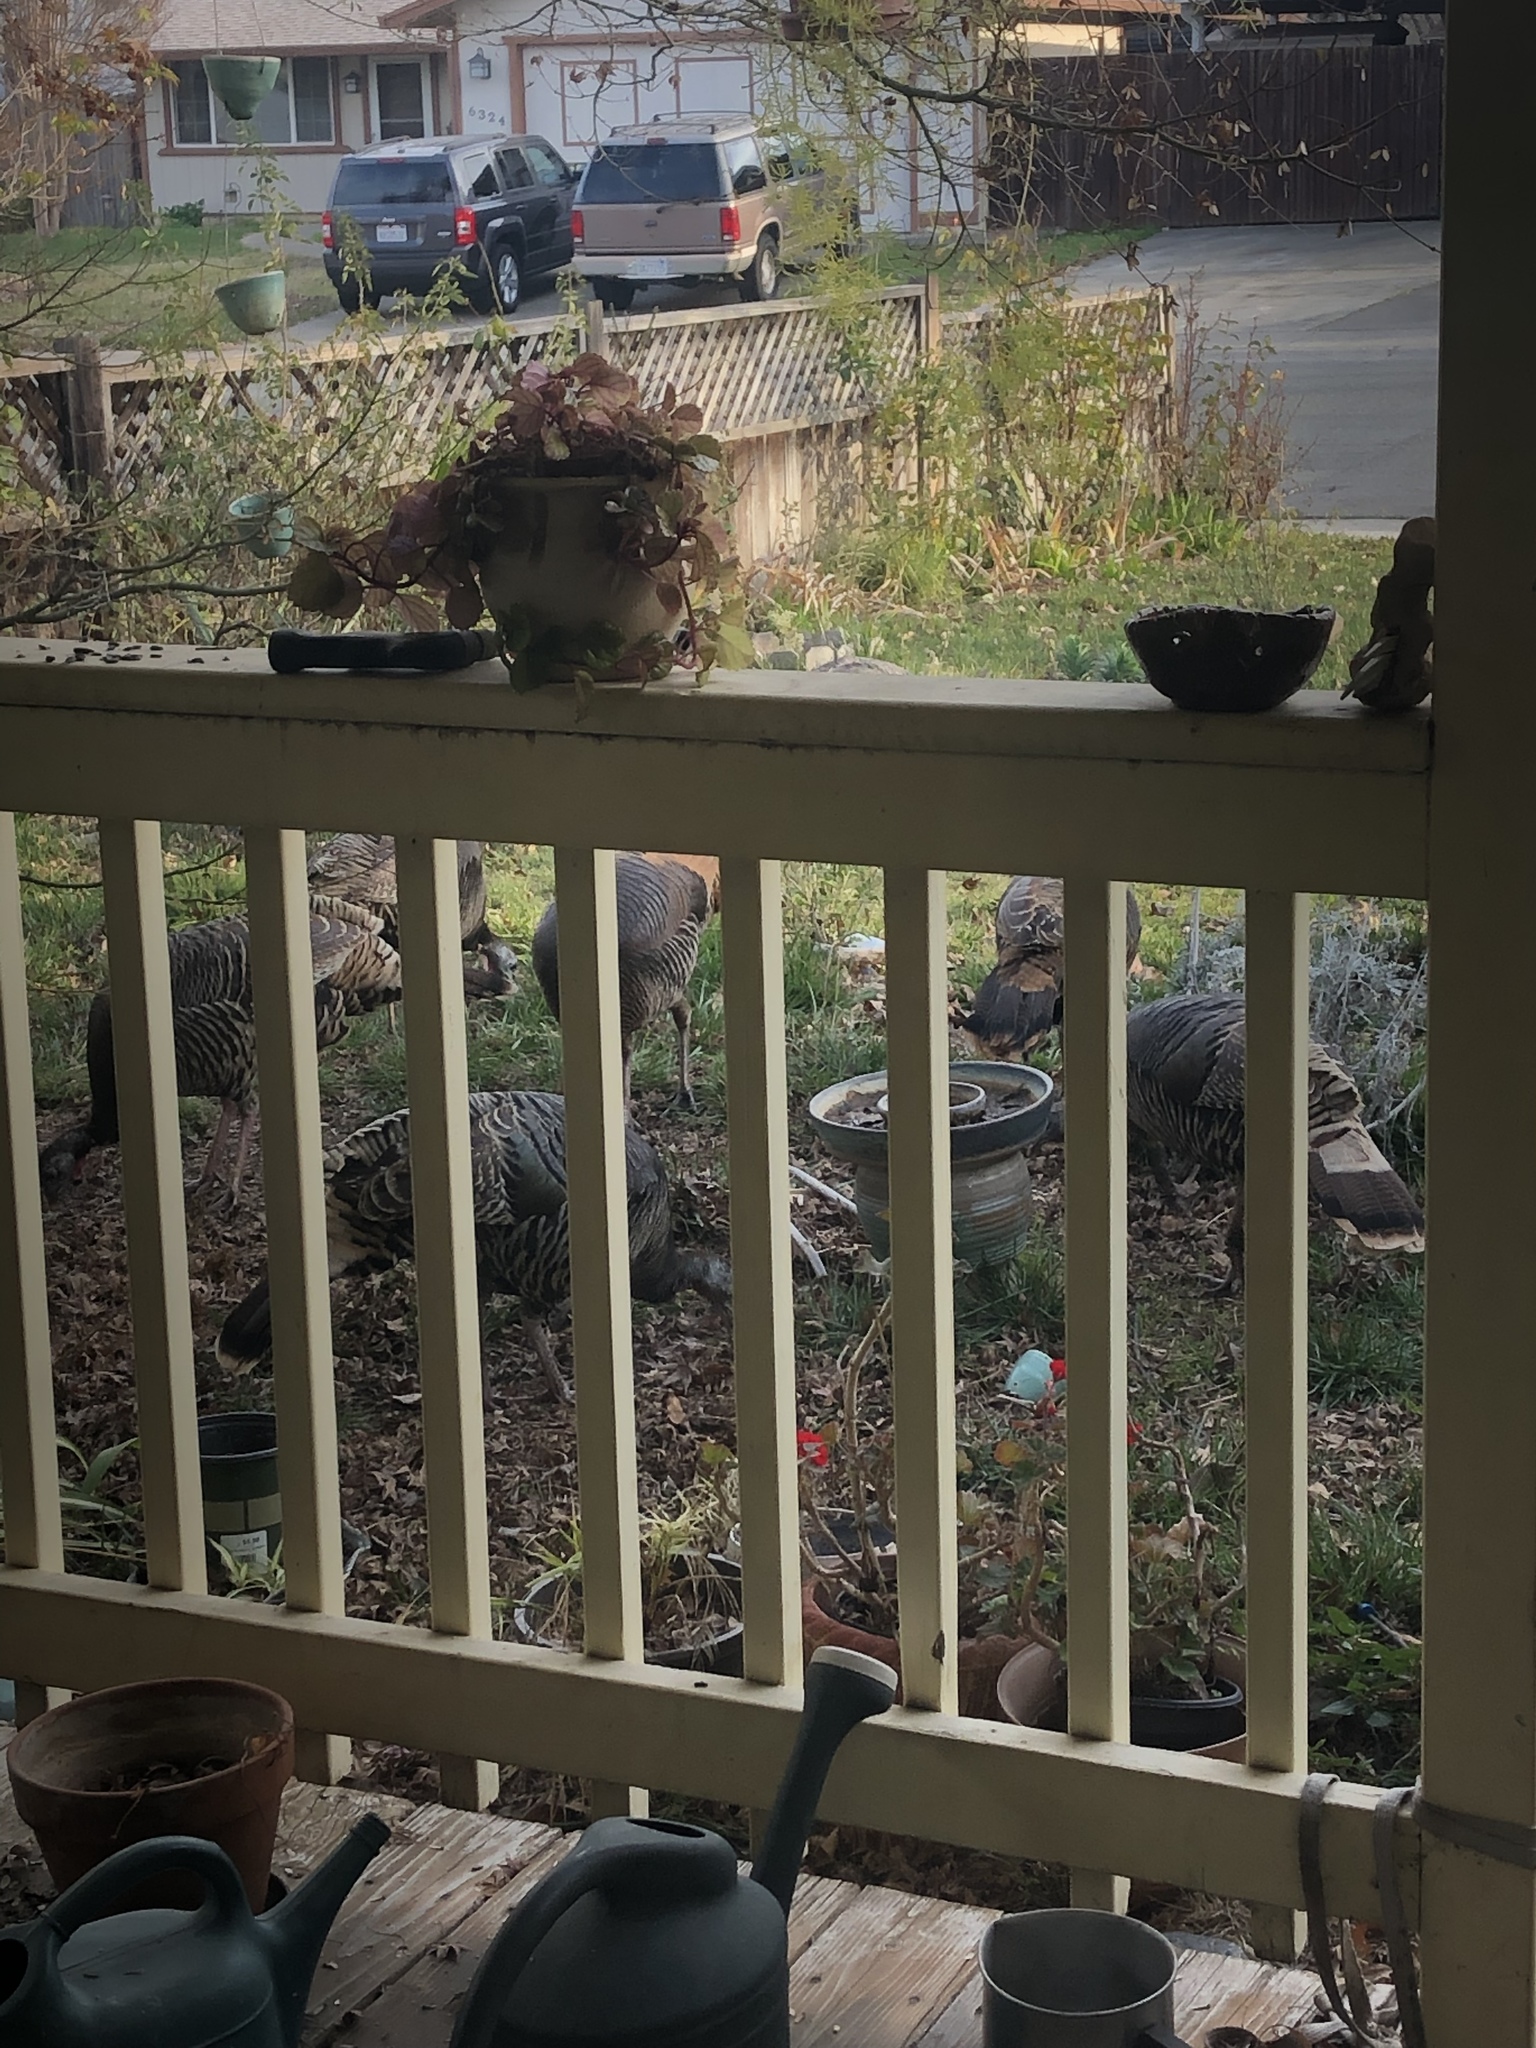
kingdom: Animalia
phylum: Chordata
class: Aves
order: Galliformes
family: Phasianidae
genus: Meleagris
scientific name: Meleagris gallopavo
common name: Wild turkey
